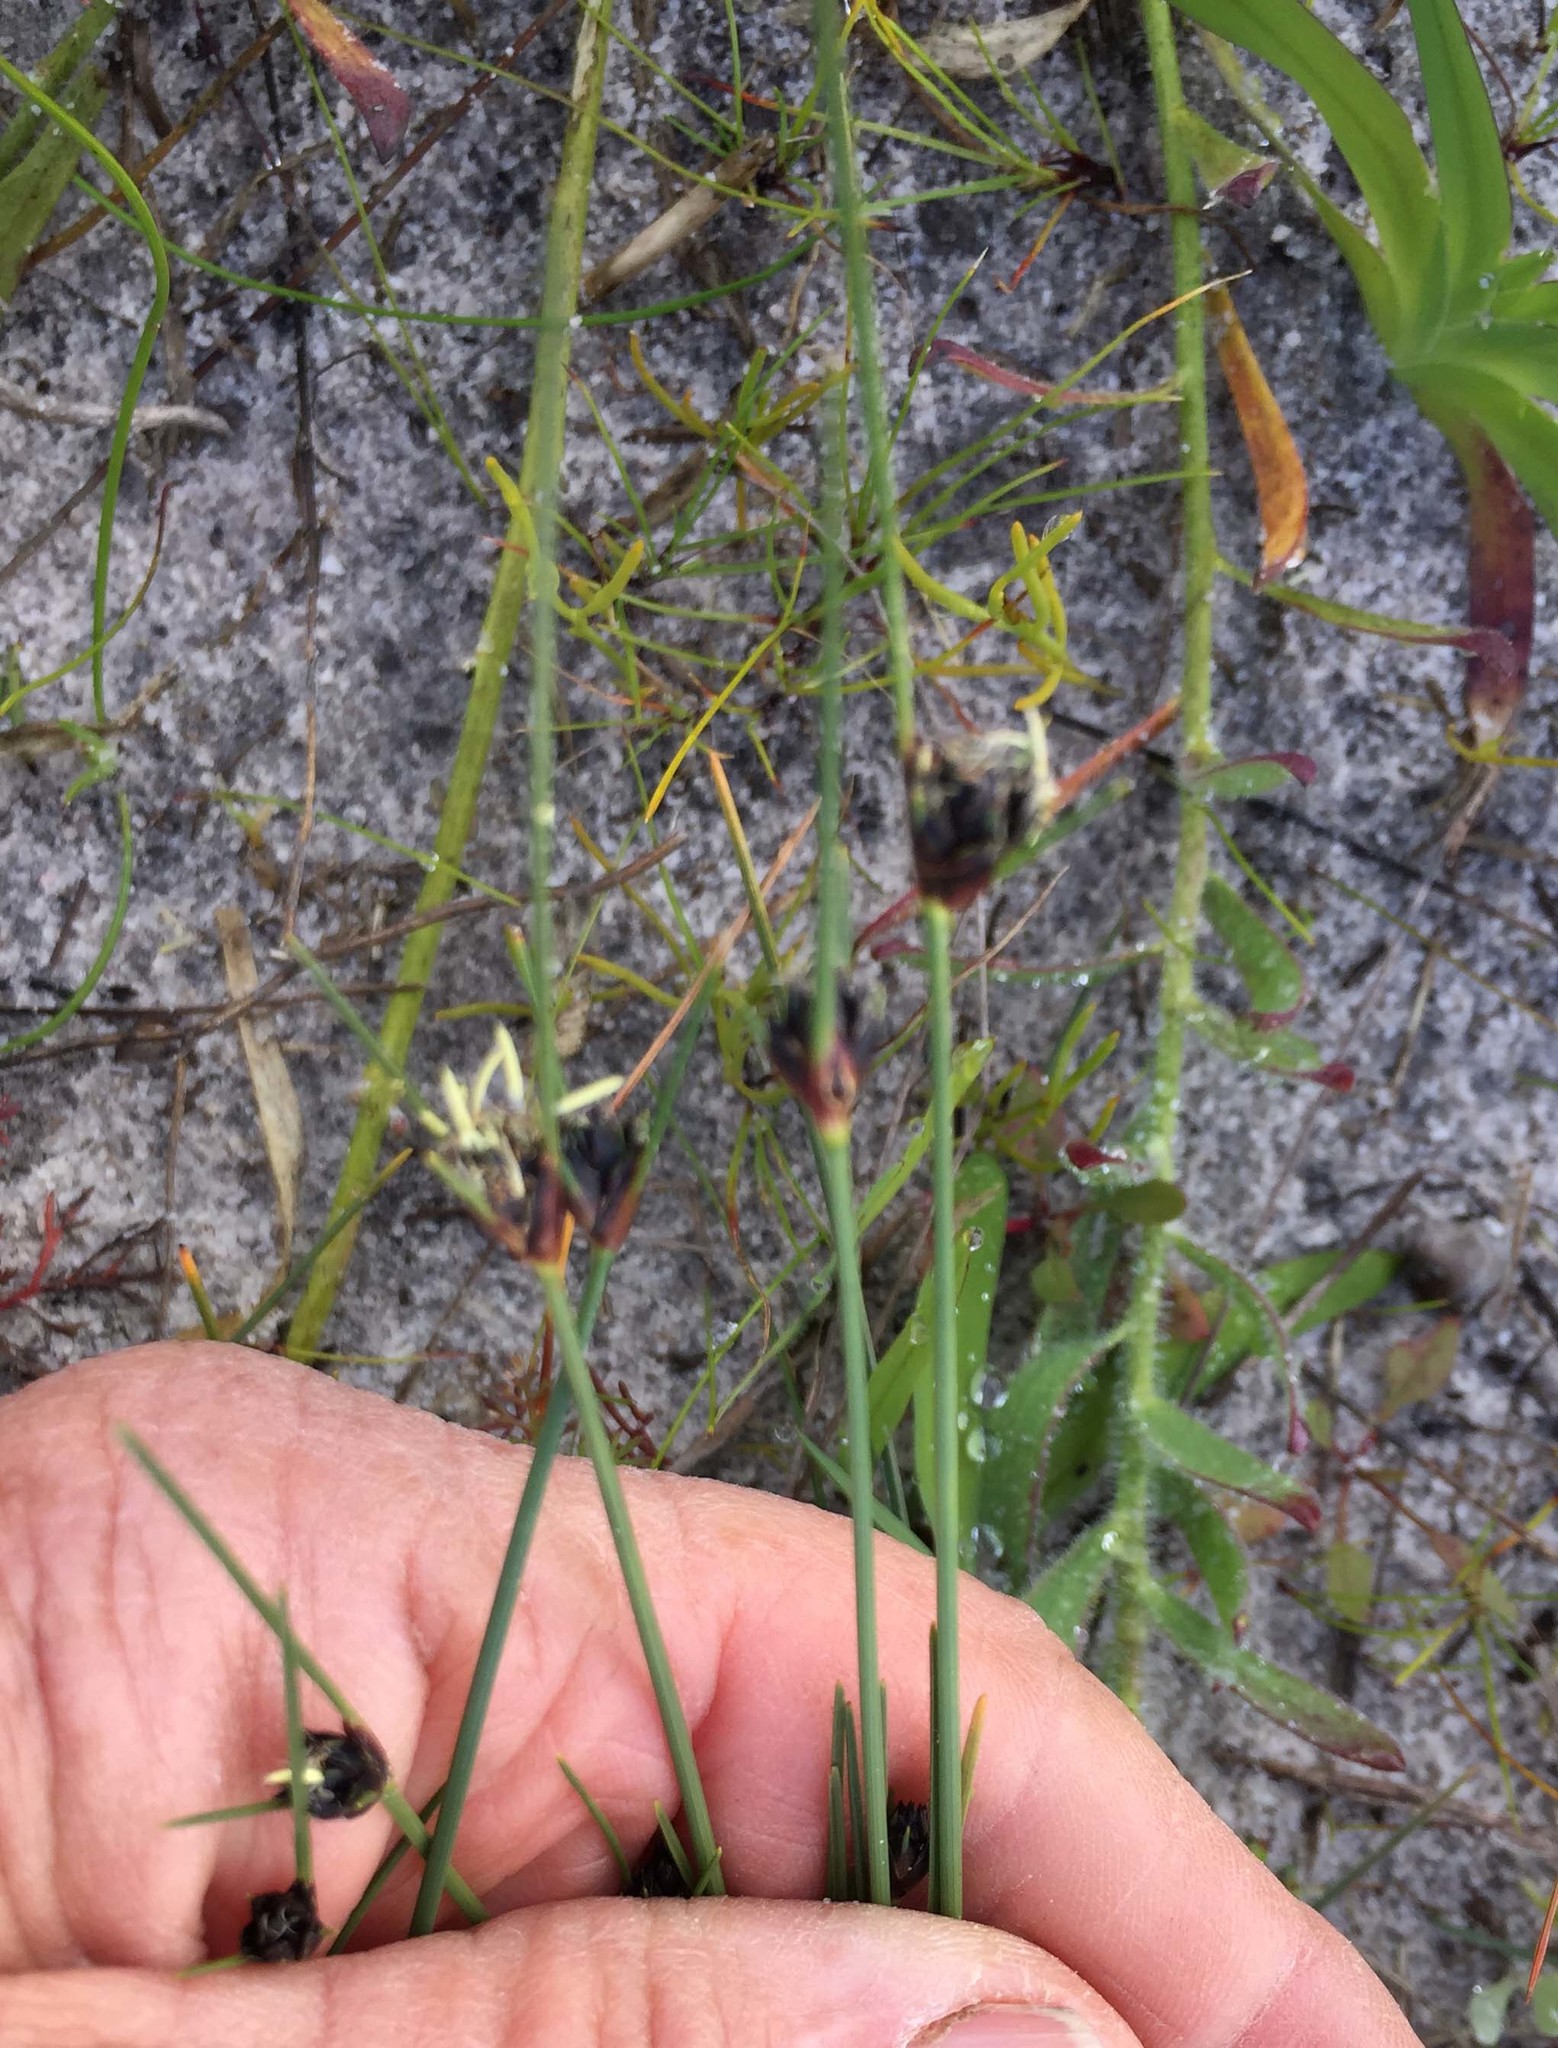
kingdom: Plantae
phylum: Tracheophyta
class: Liliopsida
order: Poales
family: Cyperaceae
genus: Ficinia
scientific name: Ficinia indica
